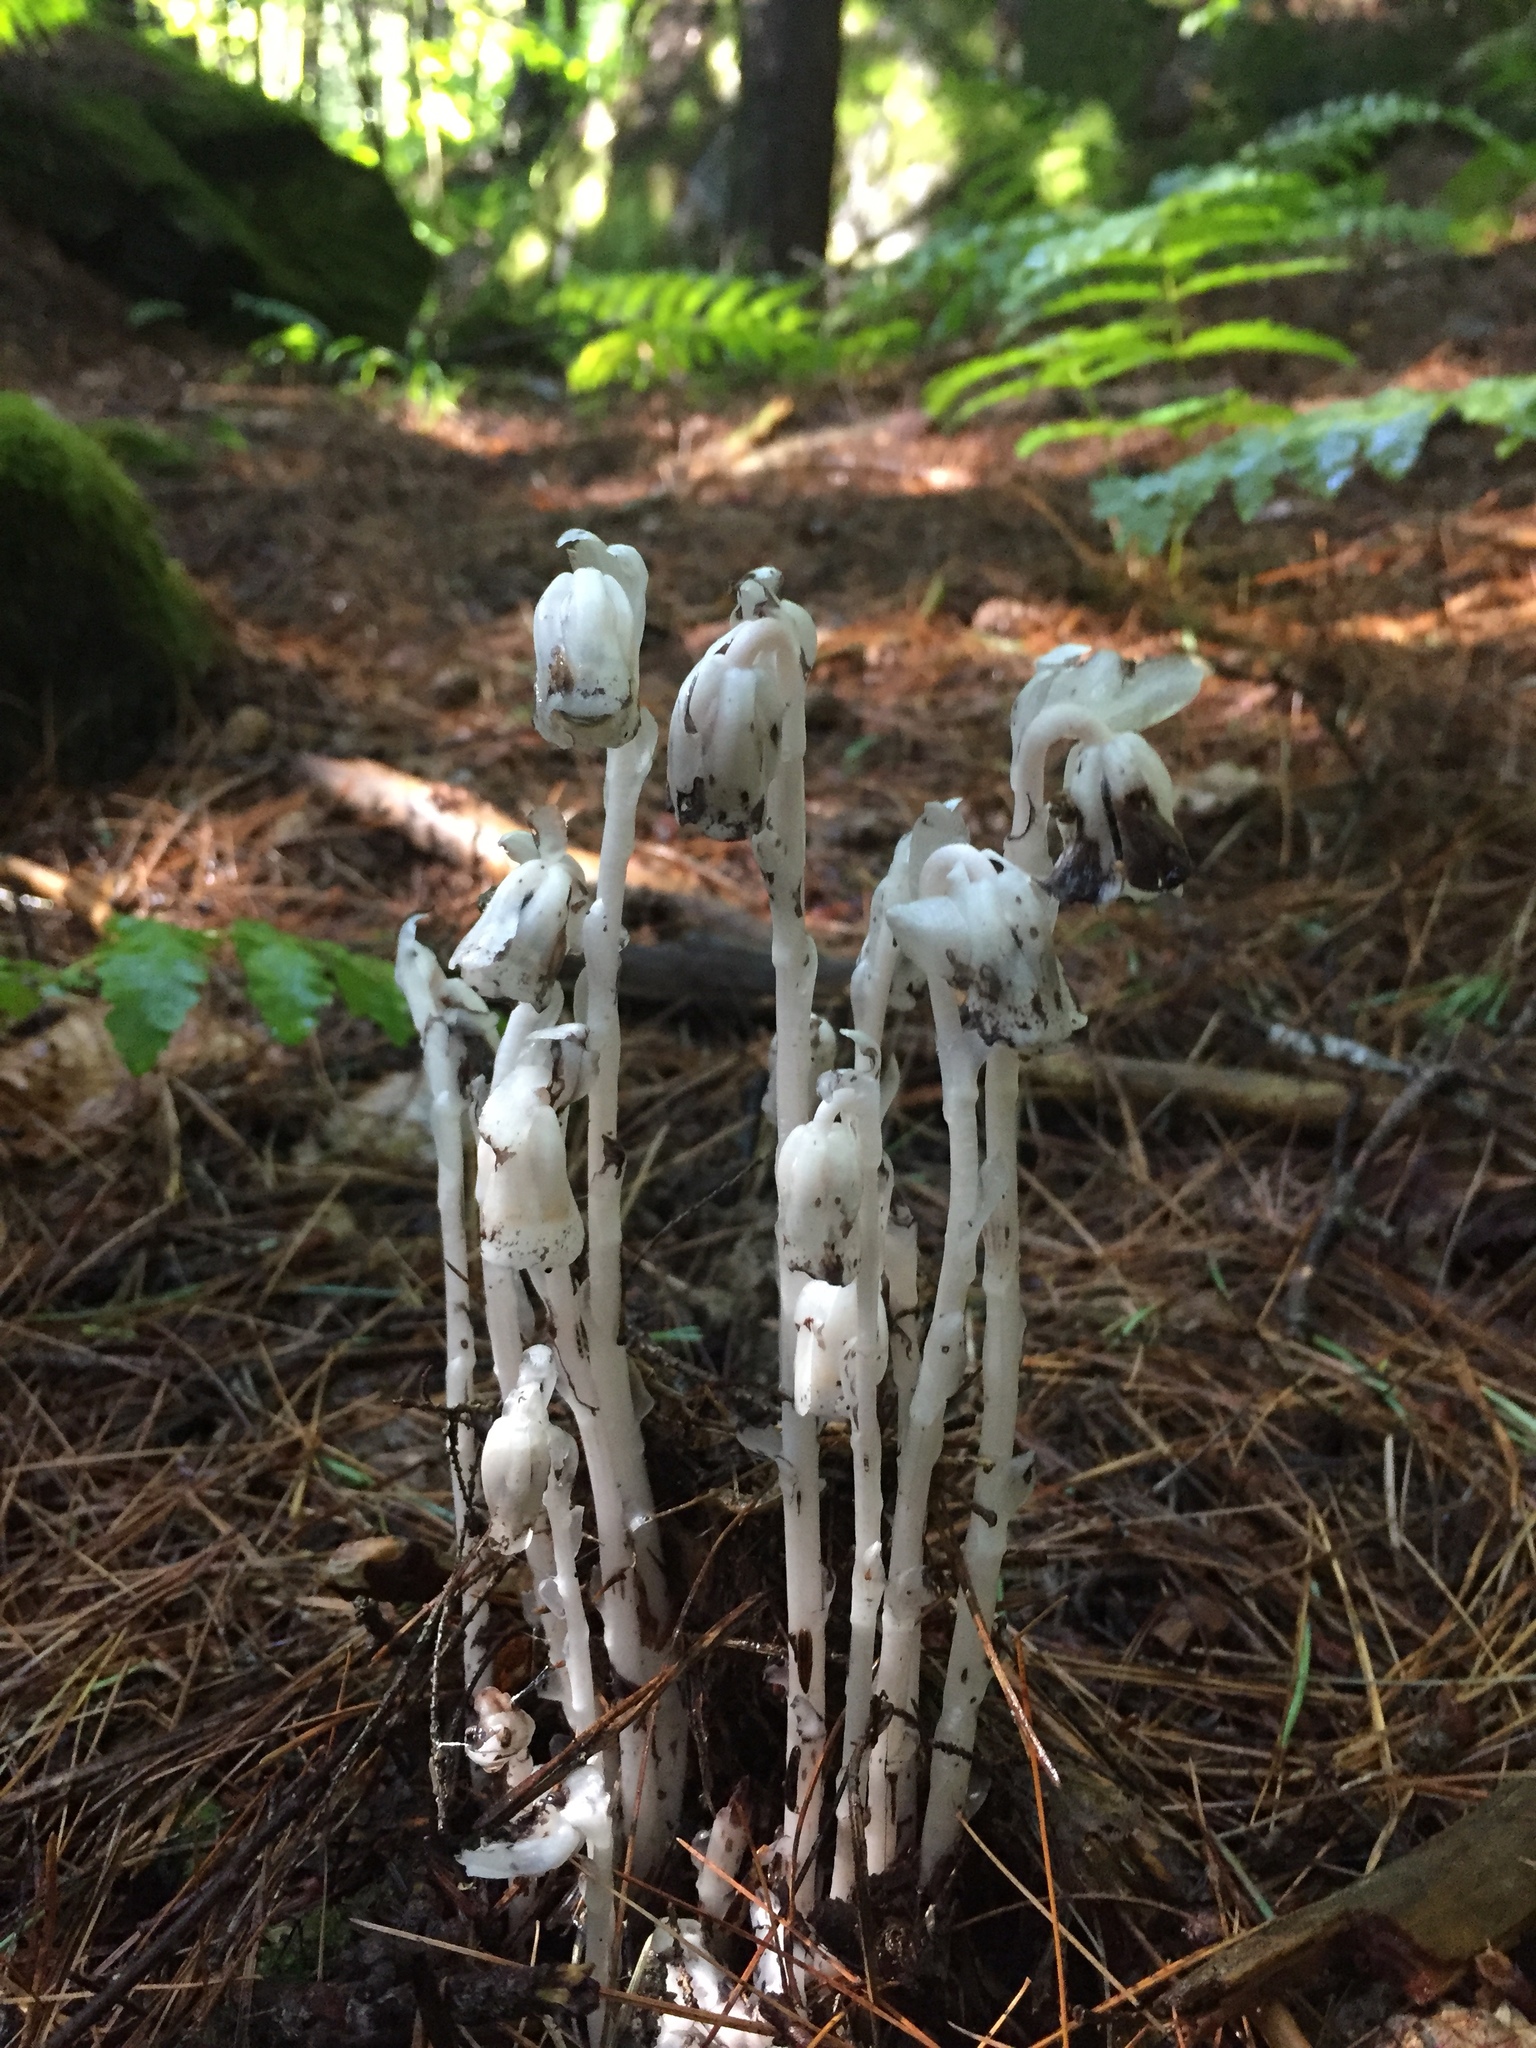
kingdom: Plantae
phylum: Tracheophyta
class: Magnoliopsida
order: Ericales
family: Ericaceae
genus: Monotropa
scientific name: Monotropa uniflora
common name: Convulsion root
